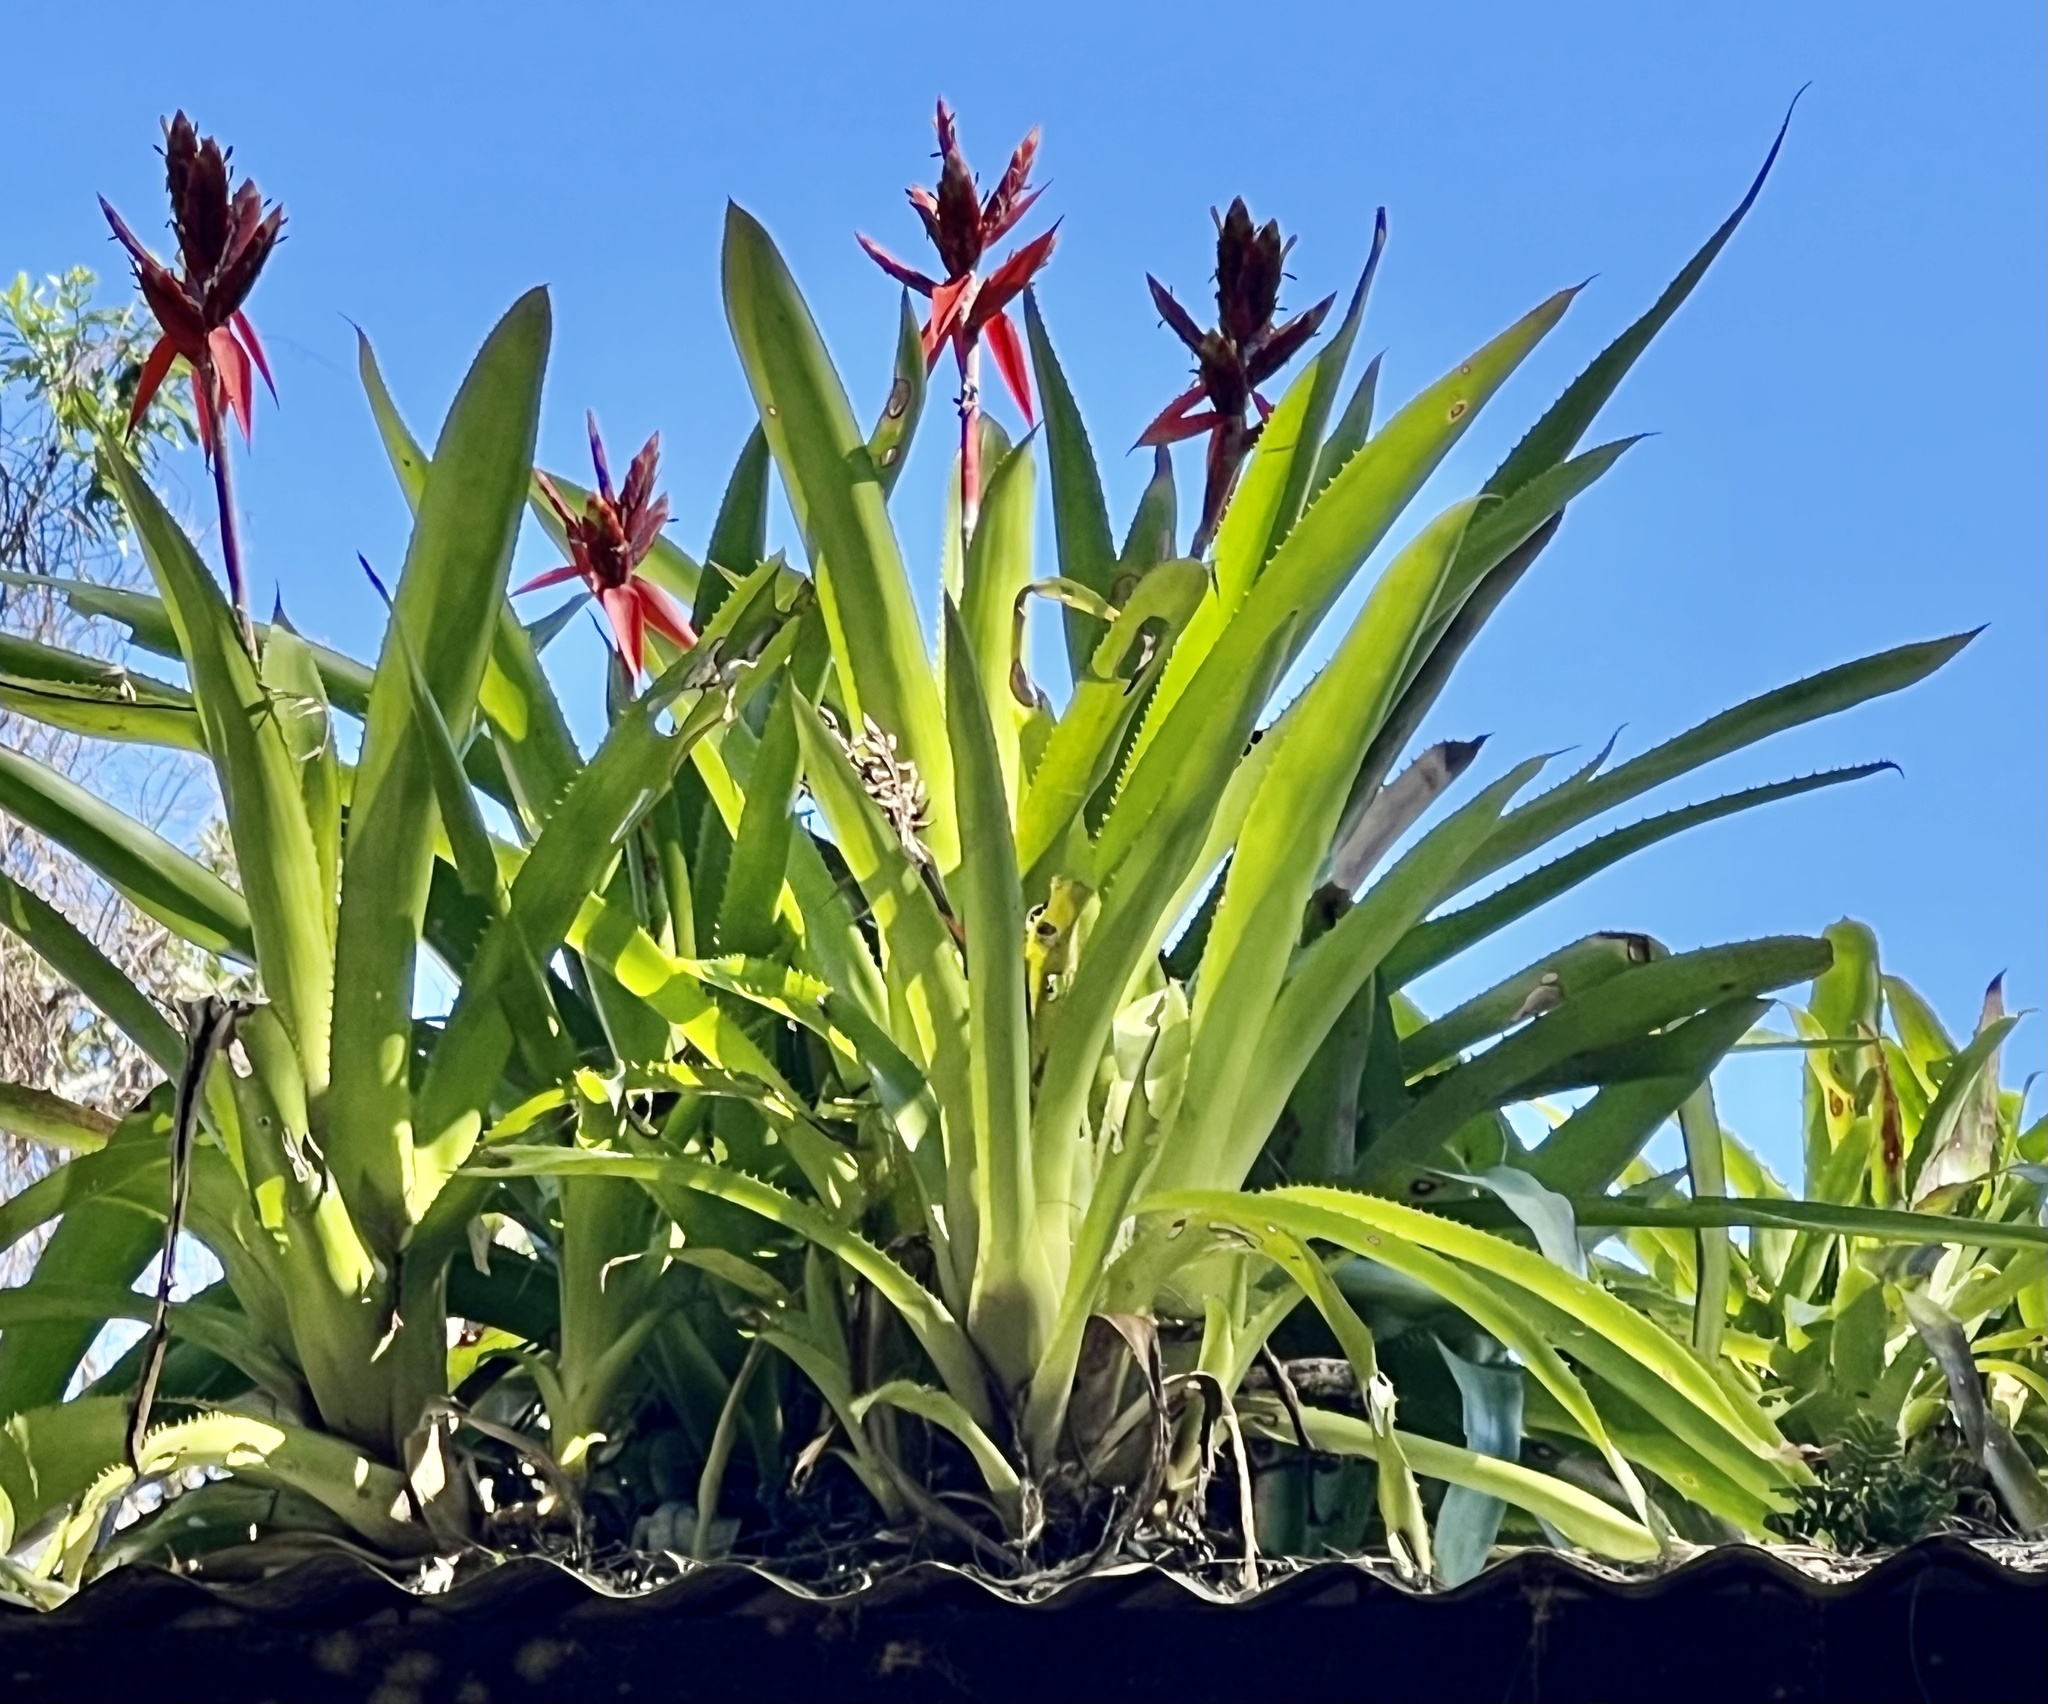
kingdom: Plantae
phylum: Tracheophyta
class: Liliopsida
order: Poales
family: Bromeliaceae
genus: Aechmea
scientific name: Aechmea tillandsioides
